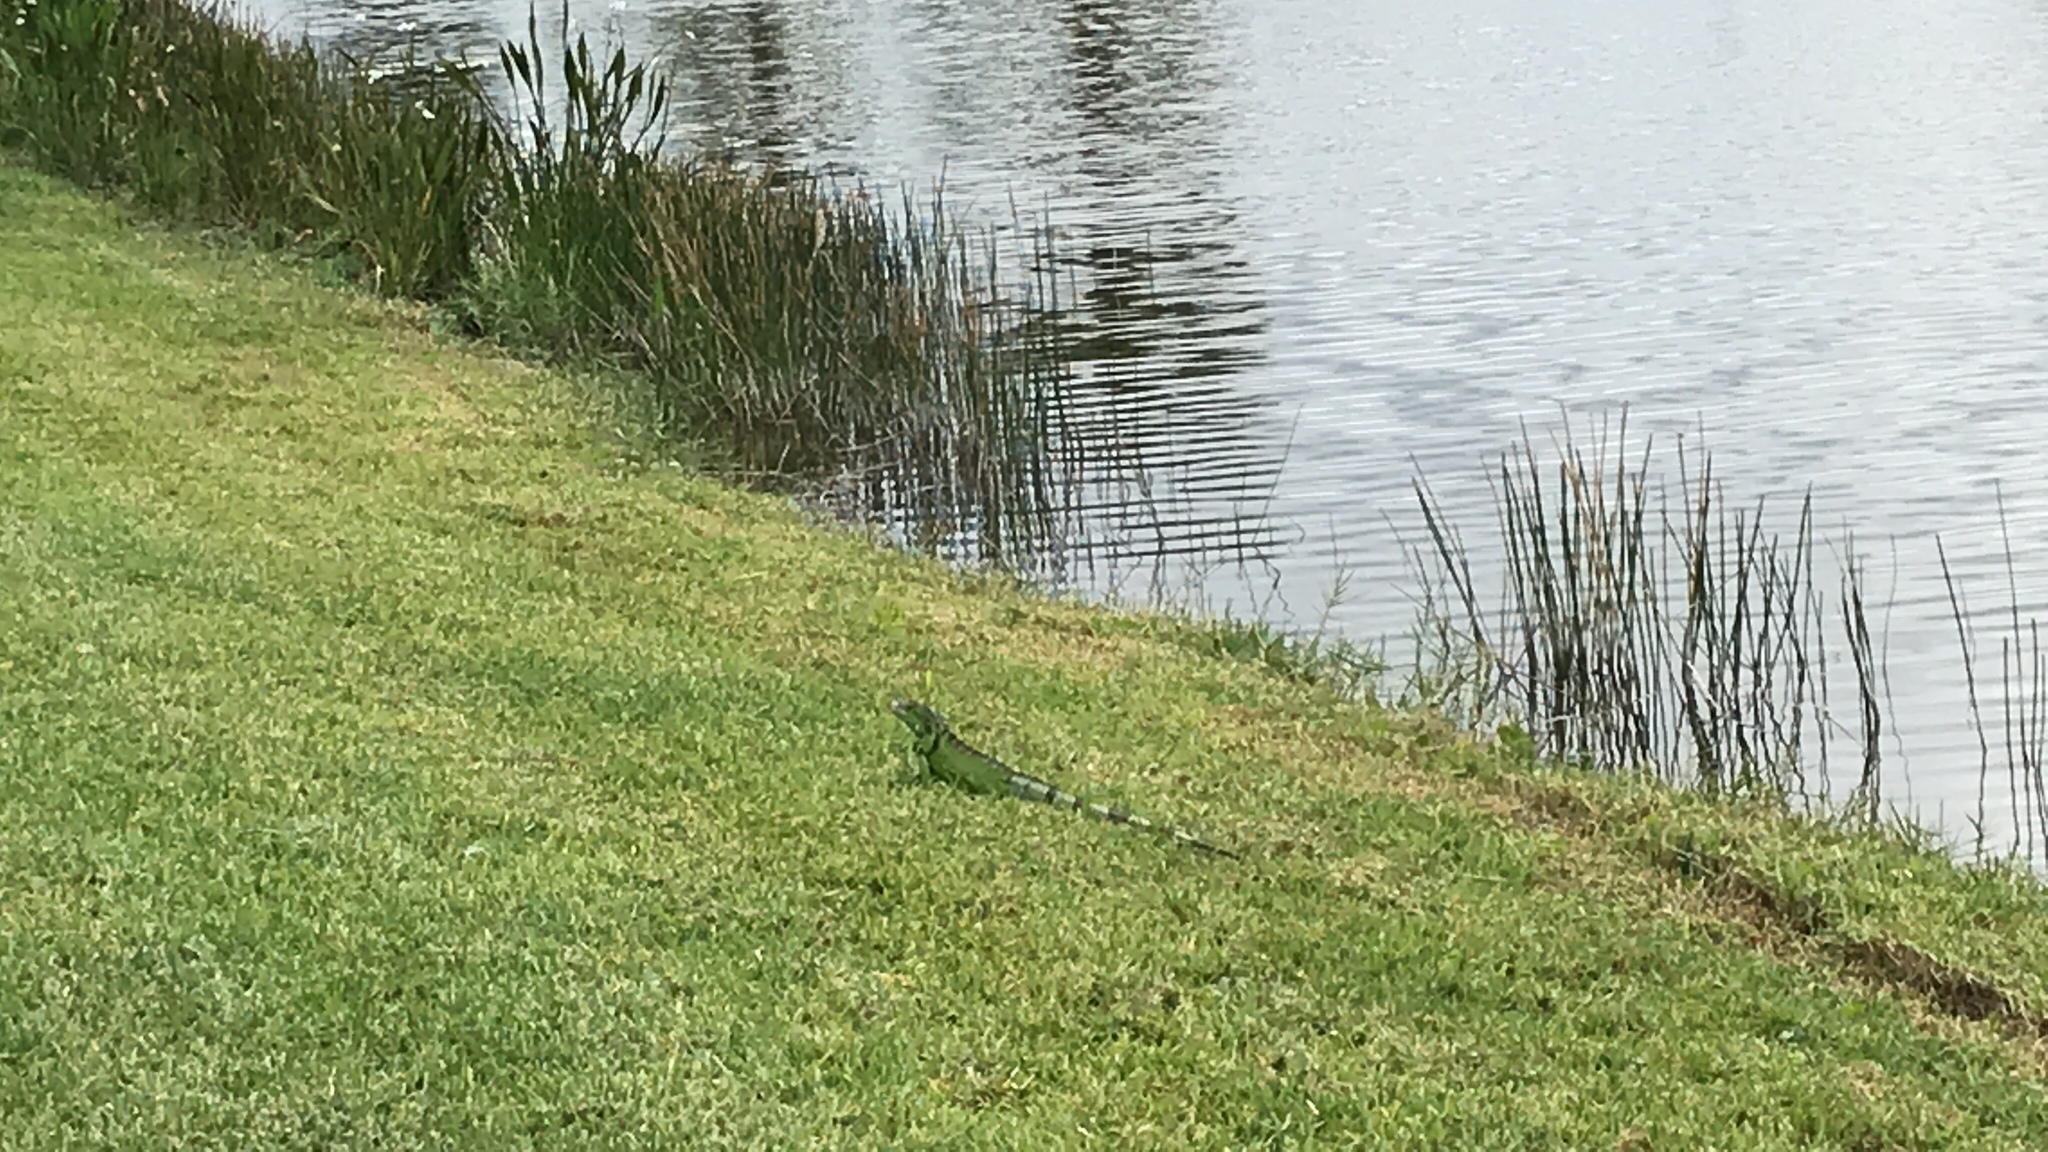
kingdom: Animalia
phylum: Chordata
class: Squamata
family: Iguanidae
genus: Iguana
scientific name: Iguana iguana
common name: Green iguana
